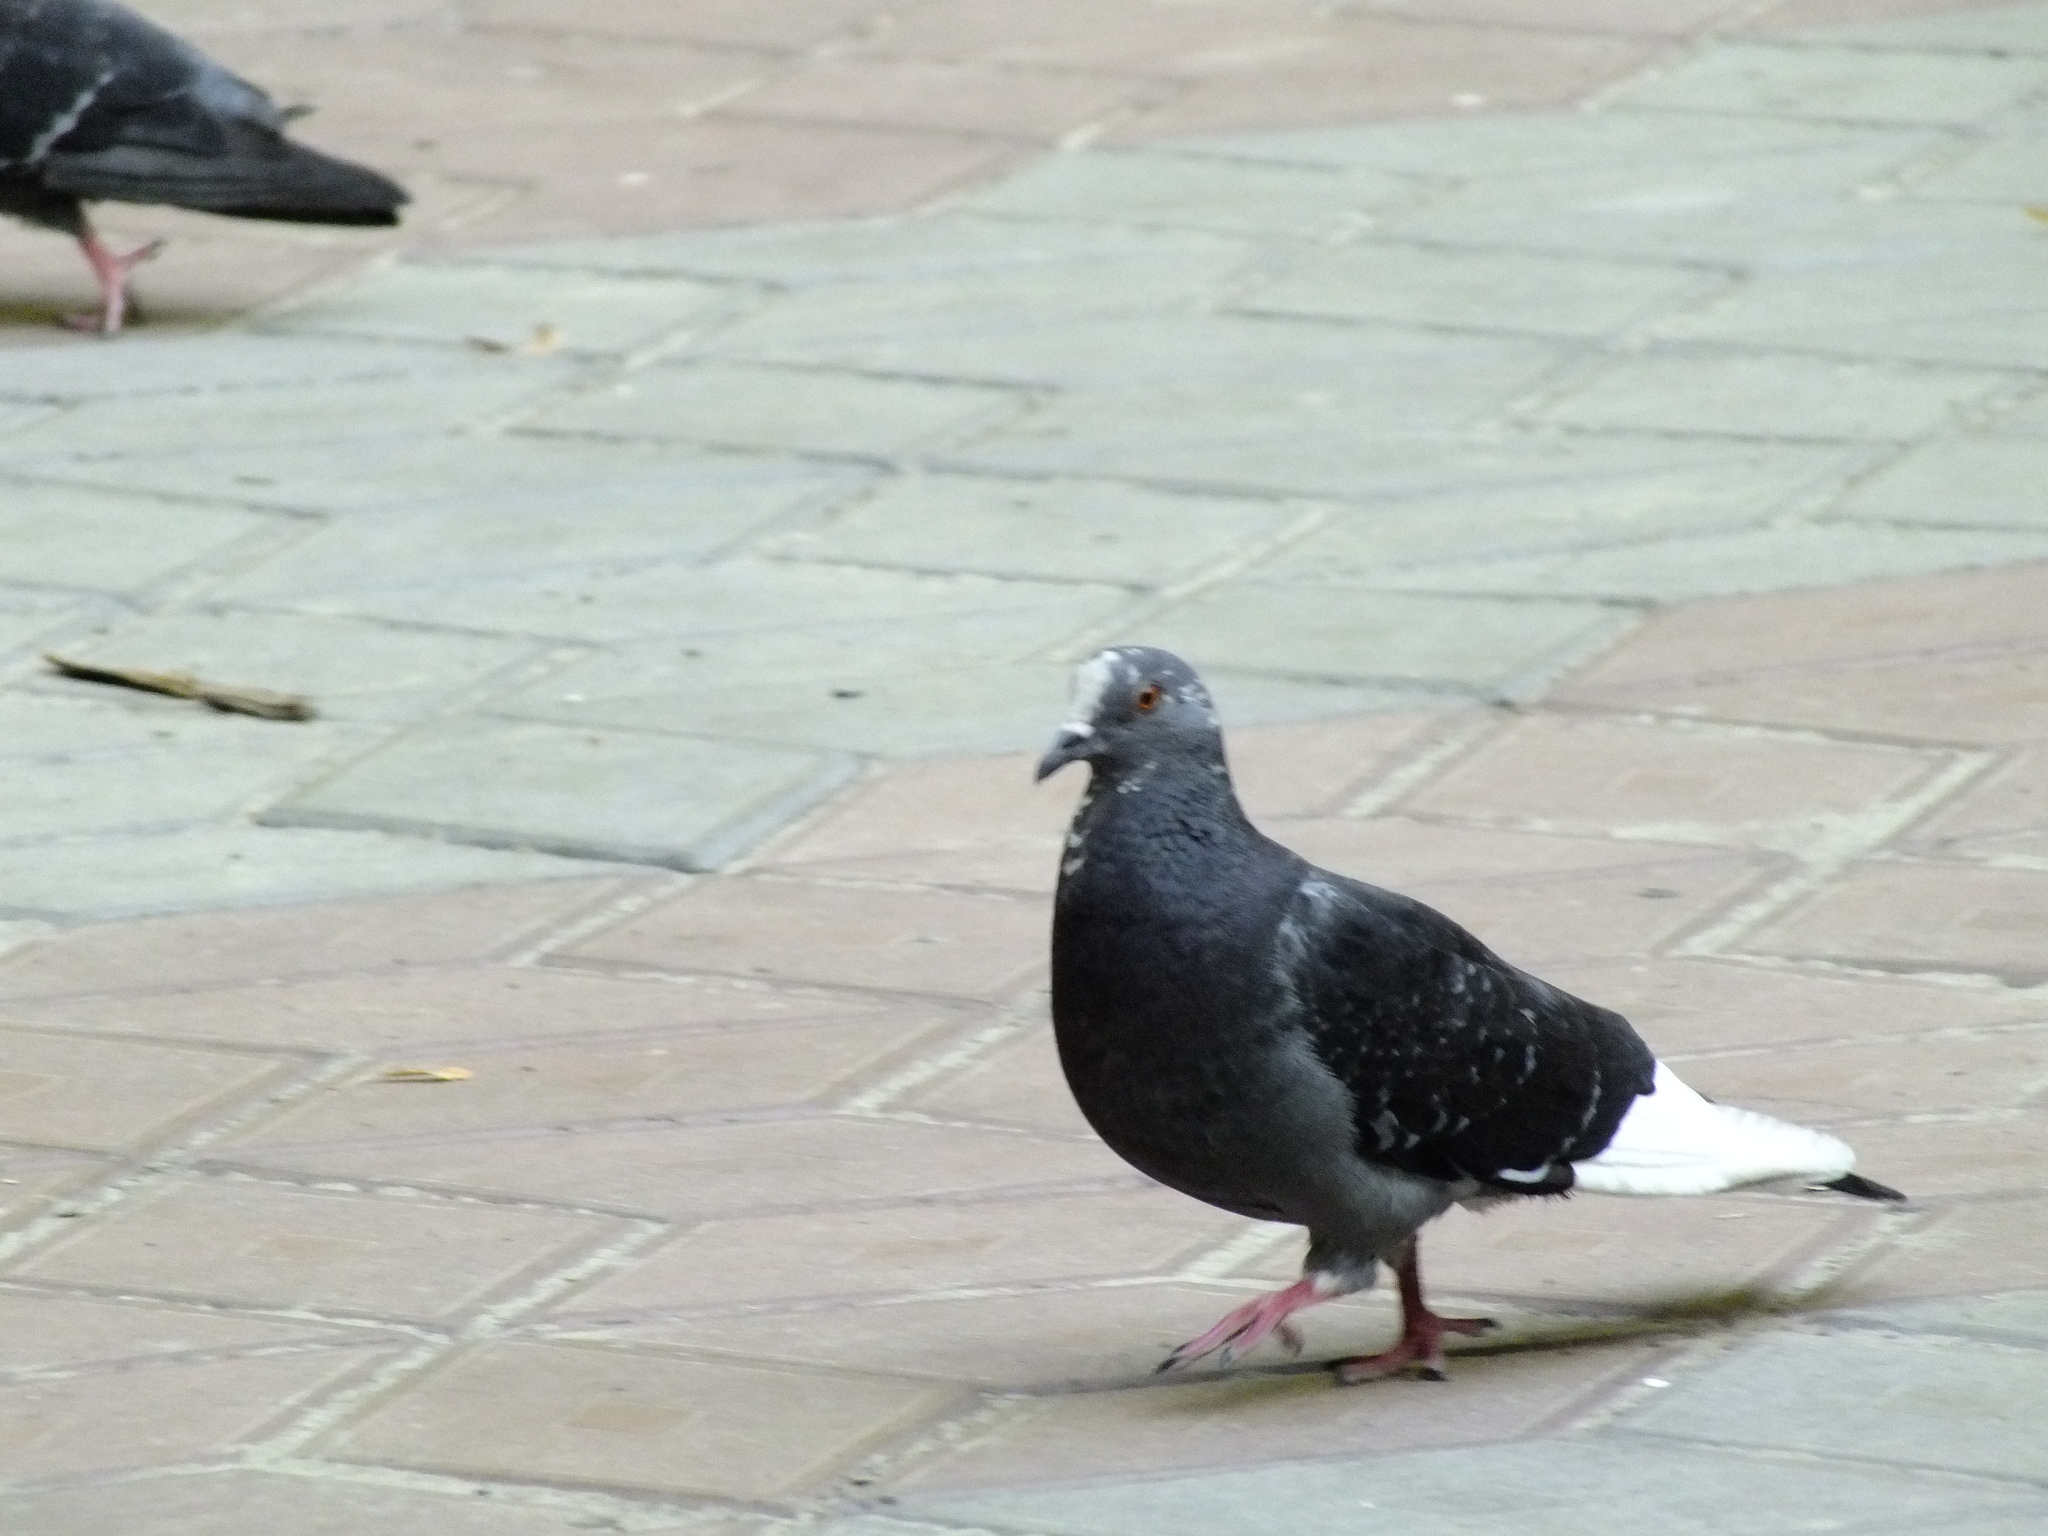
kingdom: Animalia
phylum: Chordata
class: Aves
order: Columbiformes
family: Columbidae
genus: Columba
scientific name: Columba livia
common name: Rock pigeon
